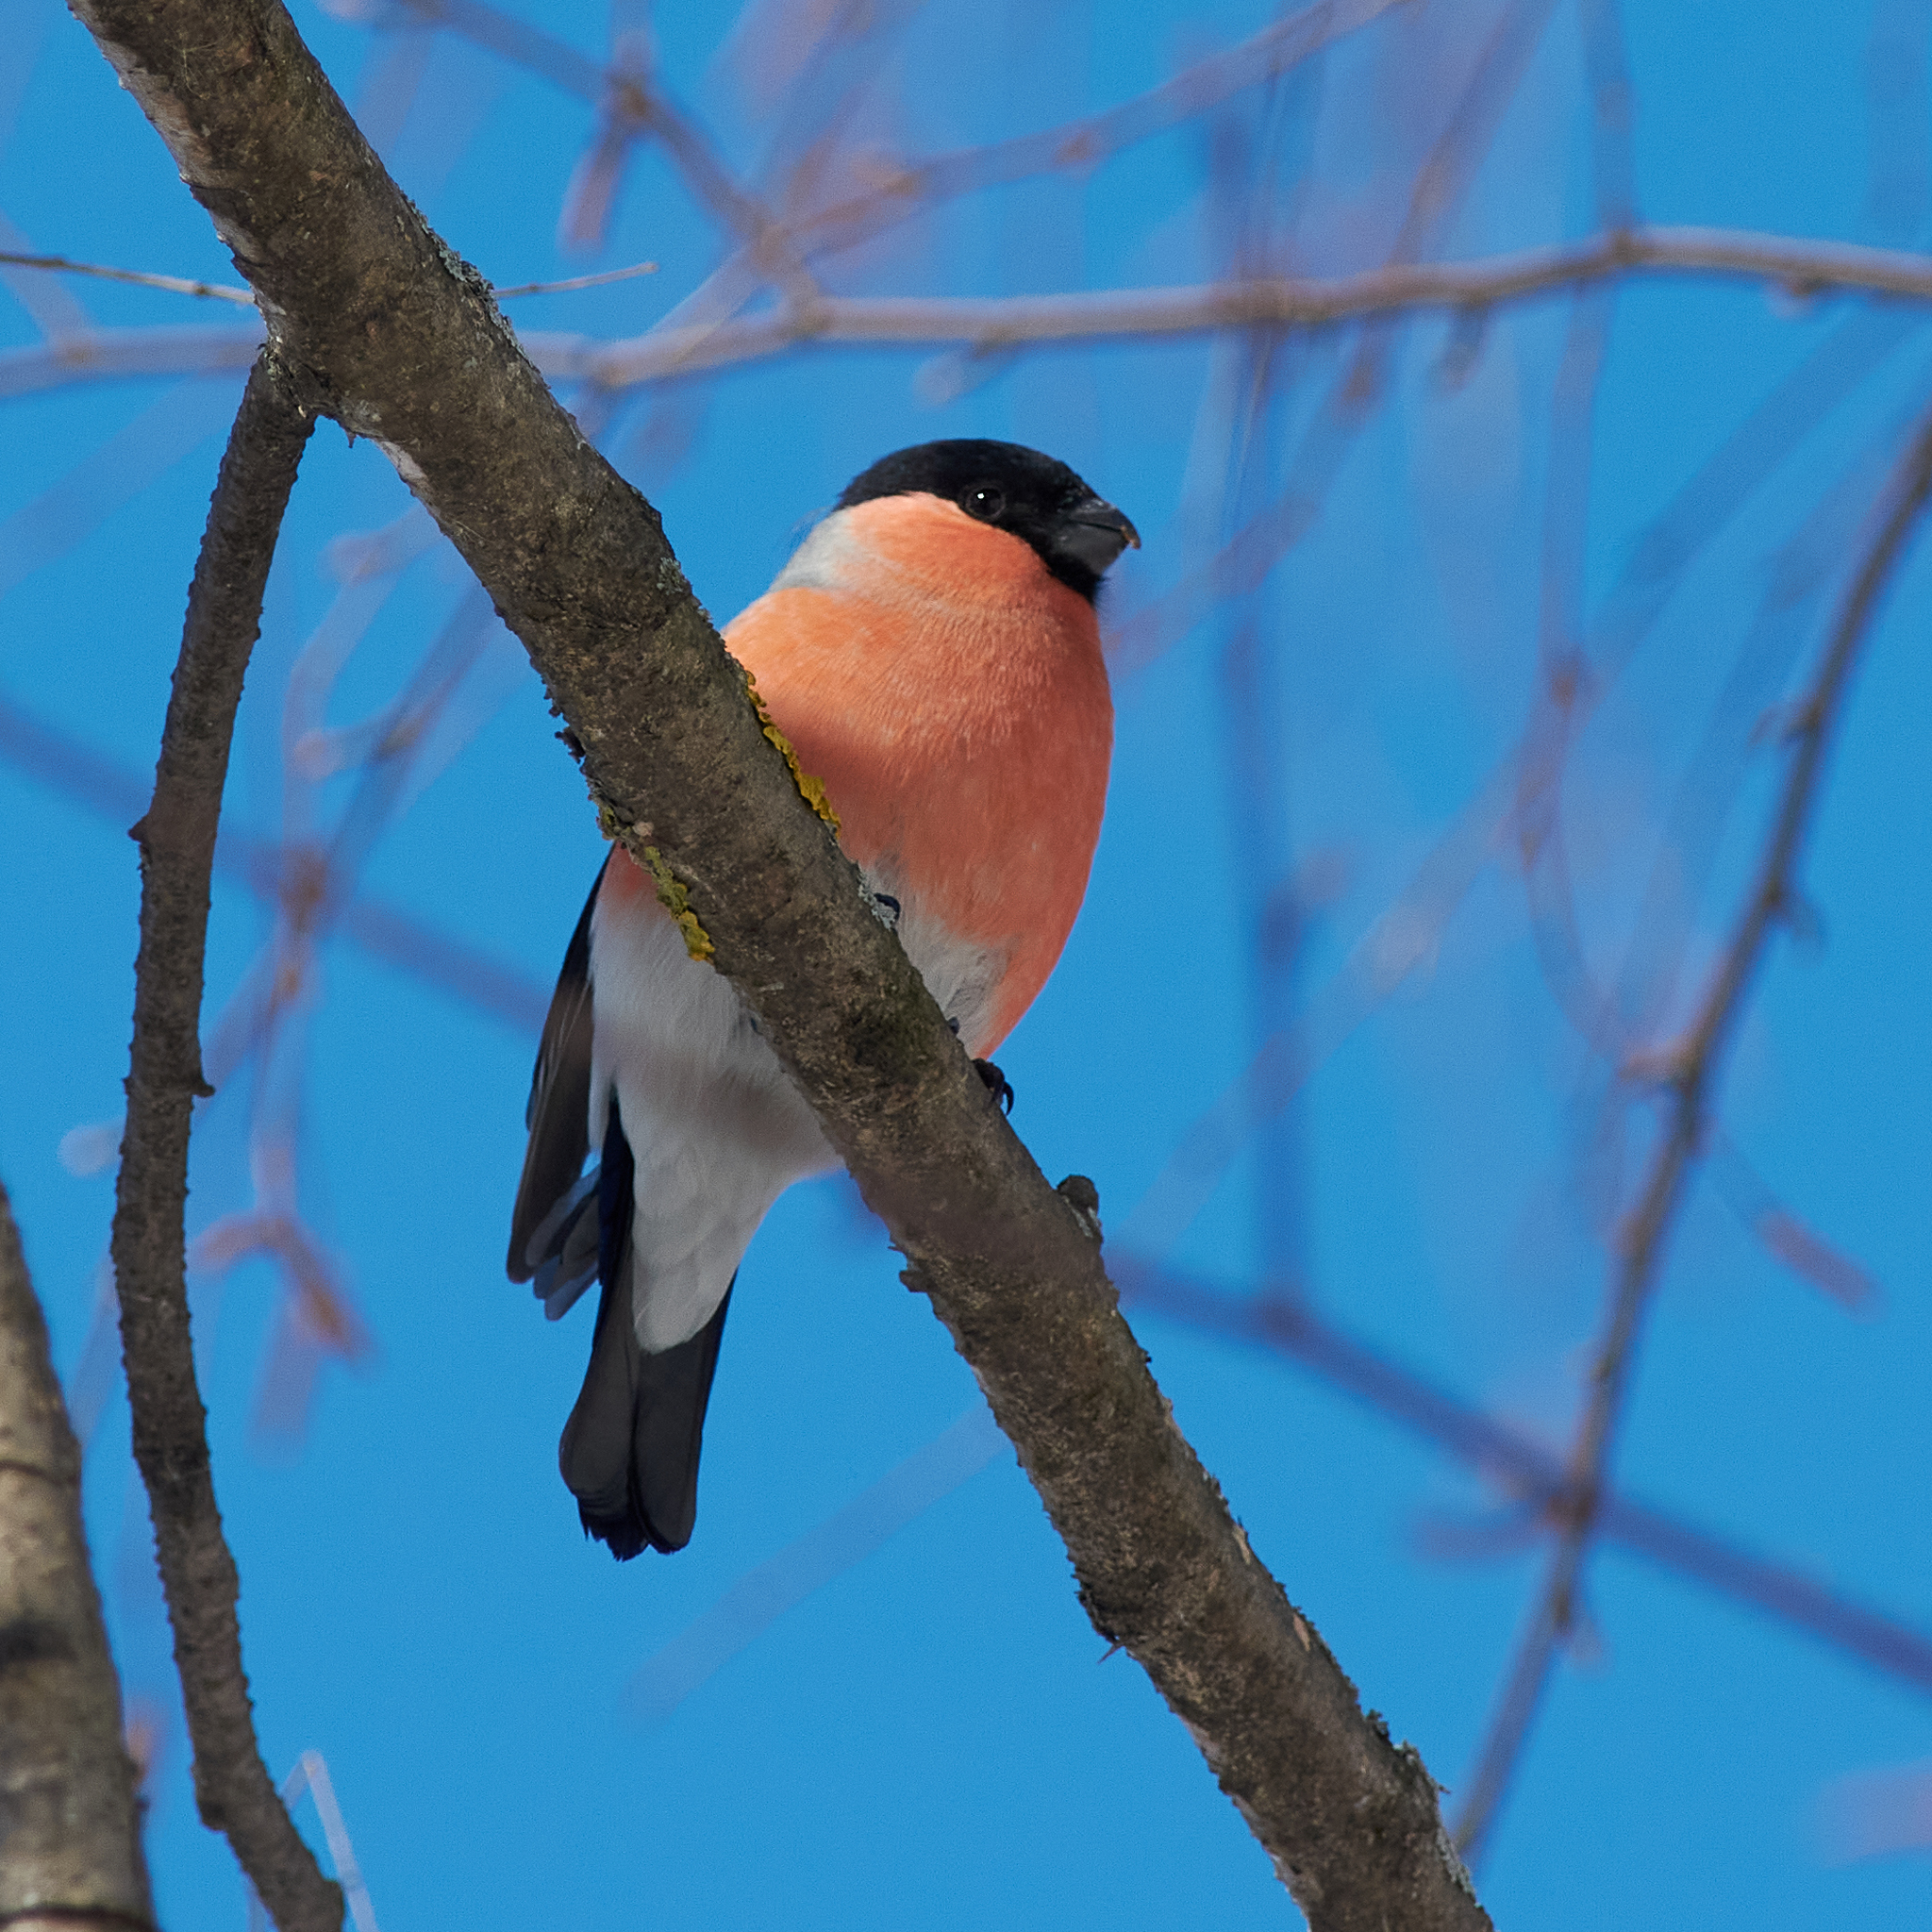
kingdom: Animalia
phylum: Chordata
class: Aves
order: Passeriformes
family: Fringillidae
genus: Pyrrhula
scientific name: Pyrrhula pyrrhula
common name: Eurasian bullfinch
